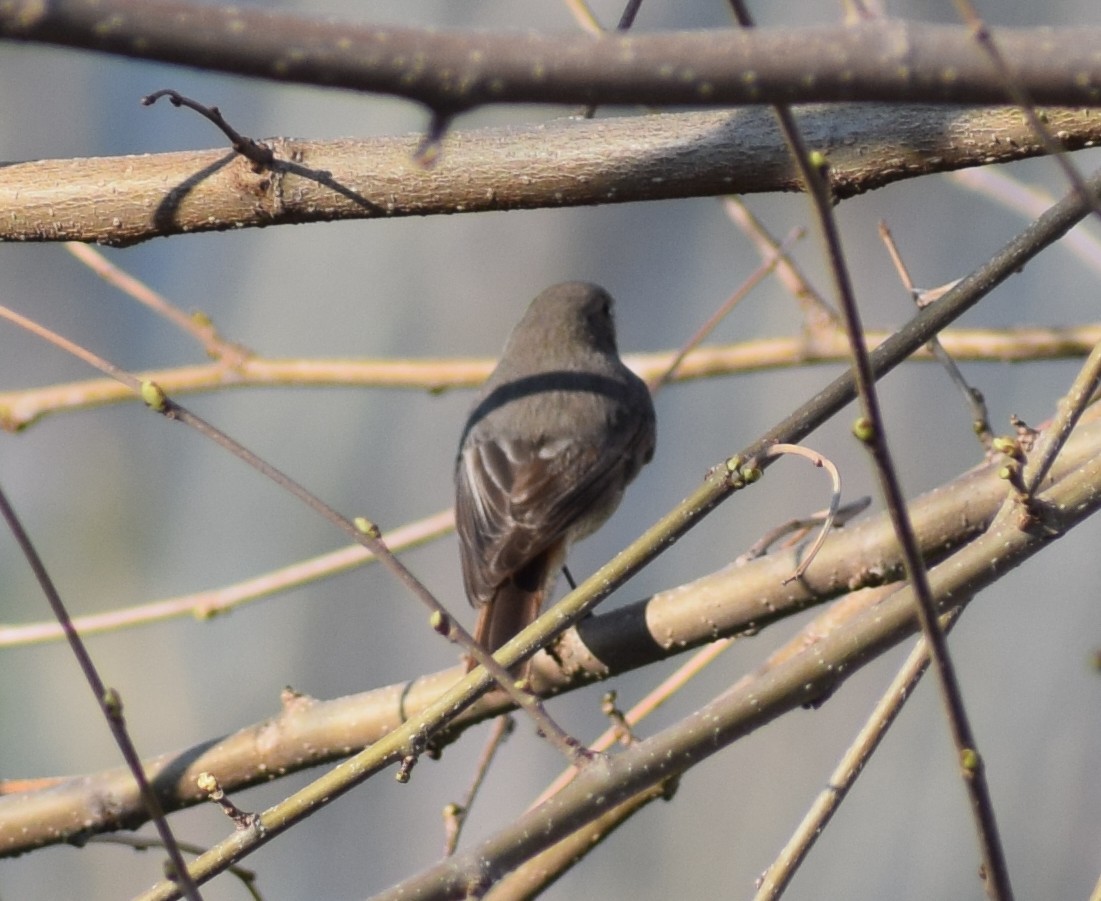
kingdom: Animalia
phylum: Chordata
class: Aves
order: Passeriformes
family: Muscicapidae
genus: Phoenicurus
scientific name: Phoenicurus ochruros
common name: Black redstart
